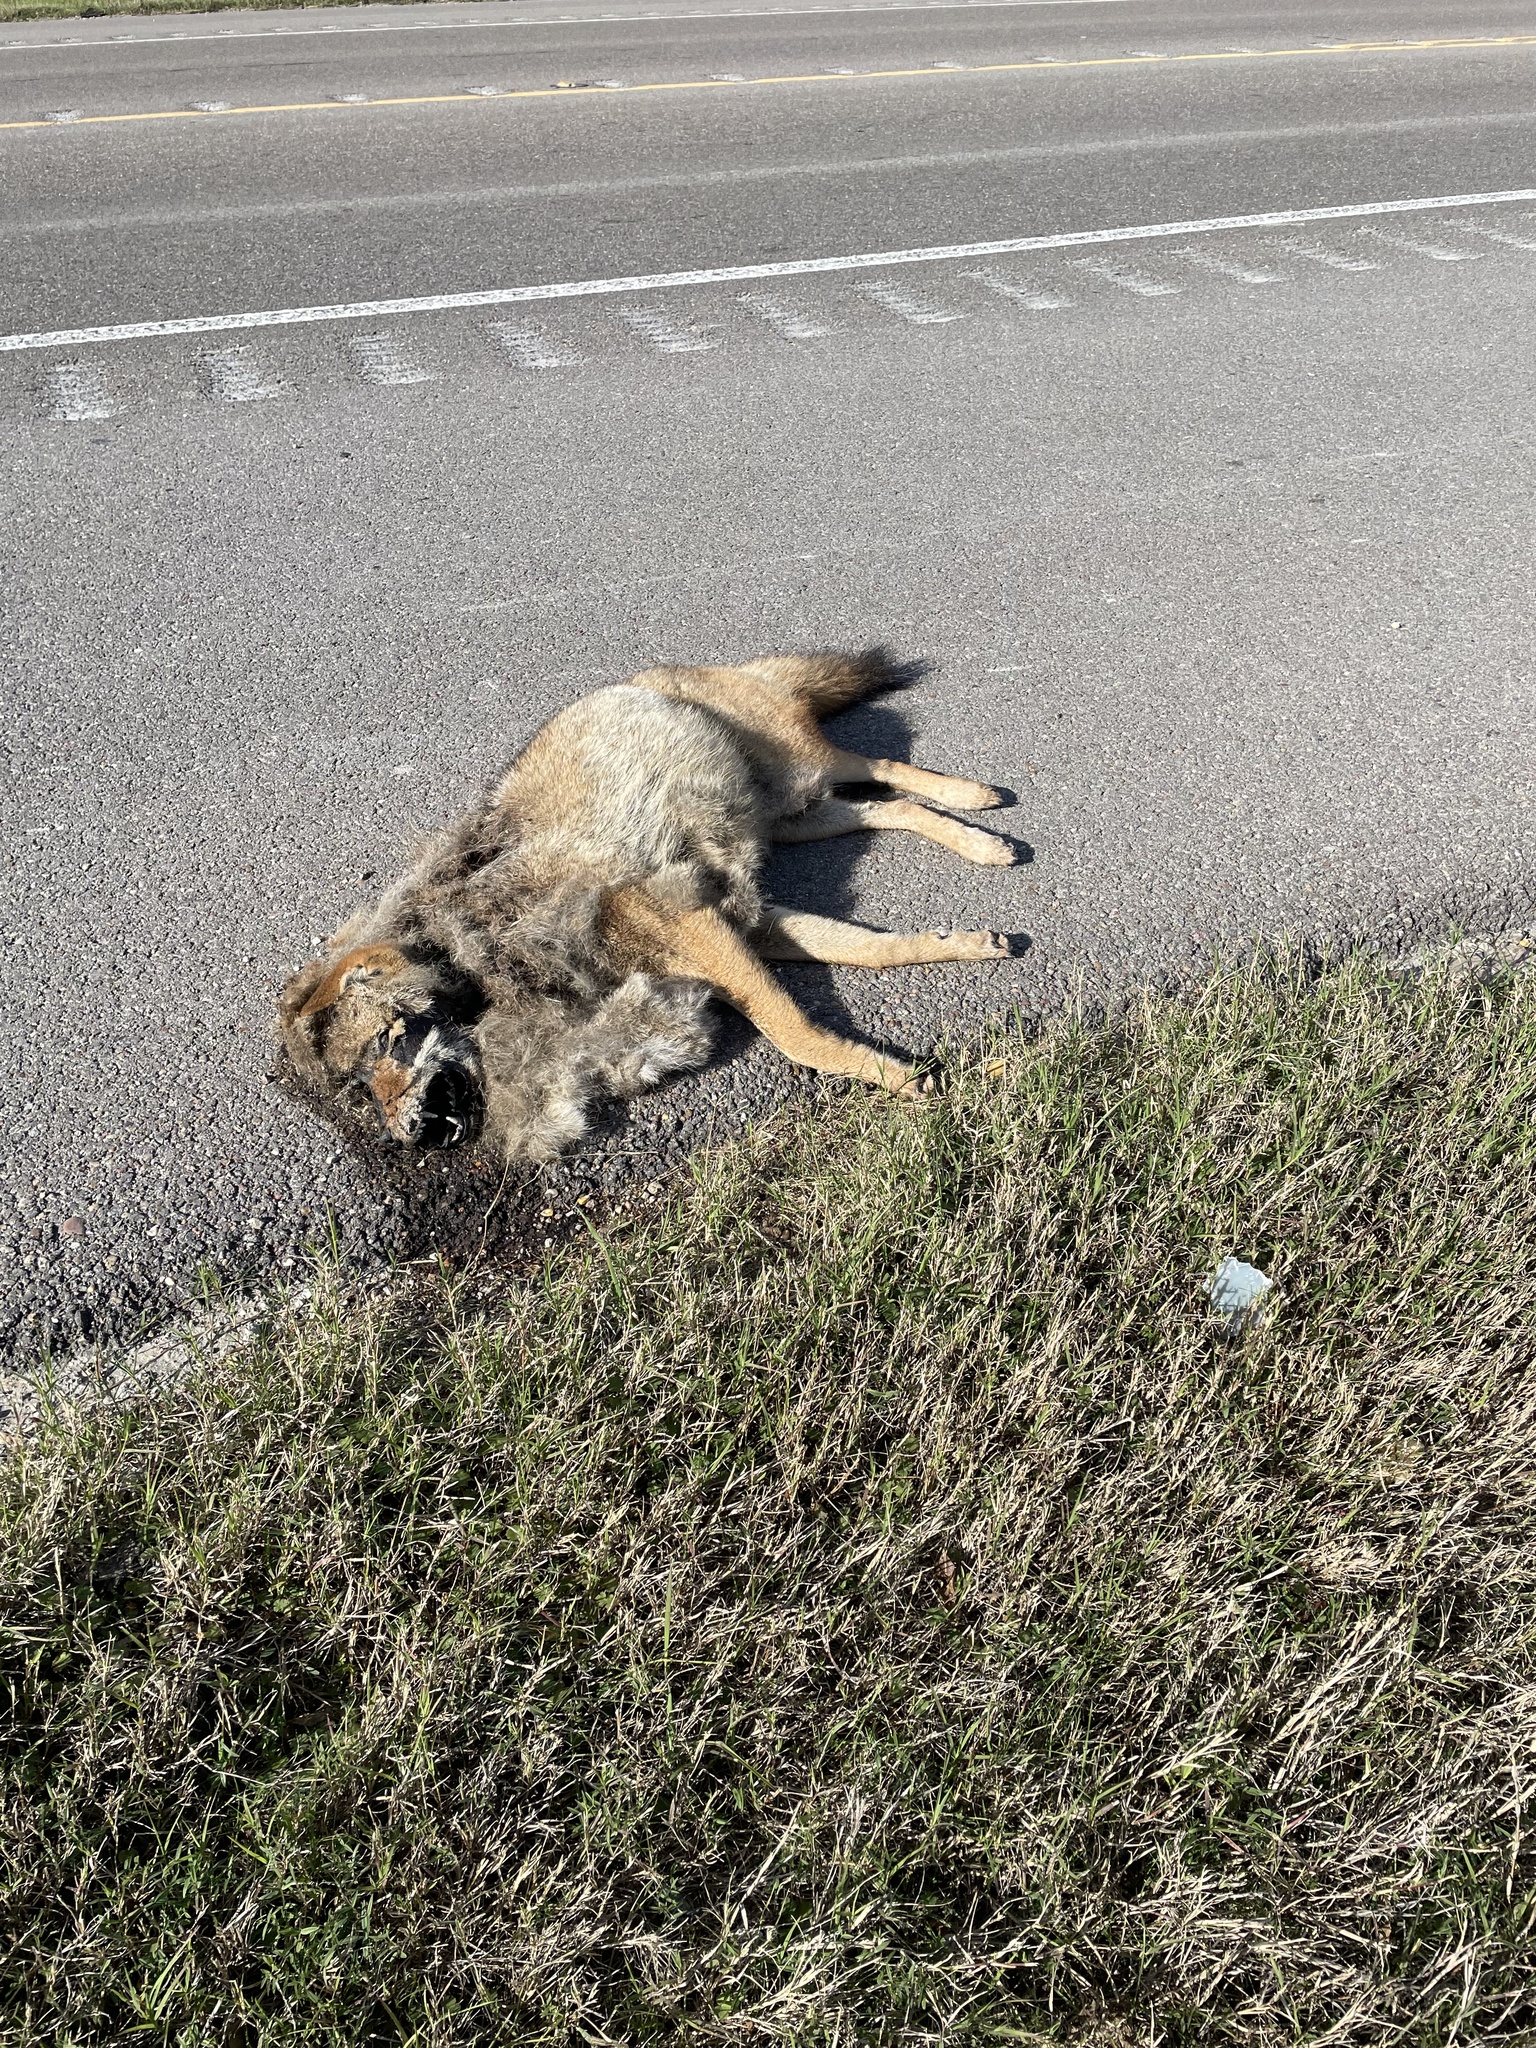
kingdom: Animalia
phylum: Chordata
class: Mammalia
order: Carnivora
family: Canidae
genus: Canis
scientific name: Canis latrans
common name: Coyote
